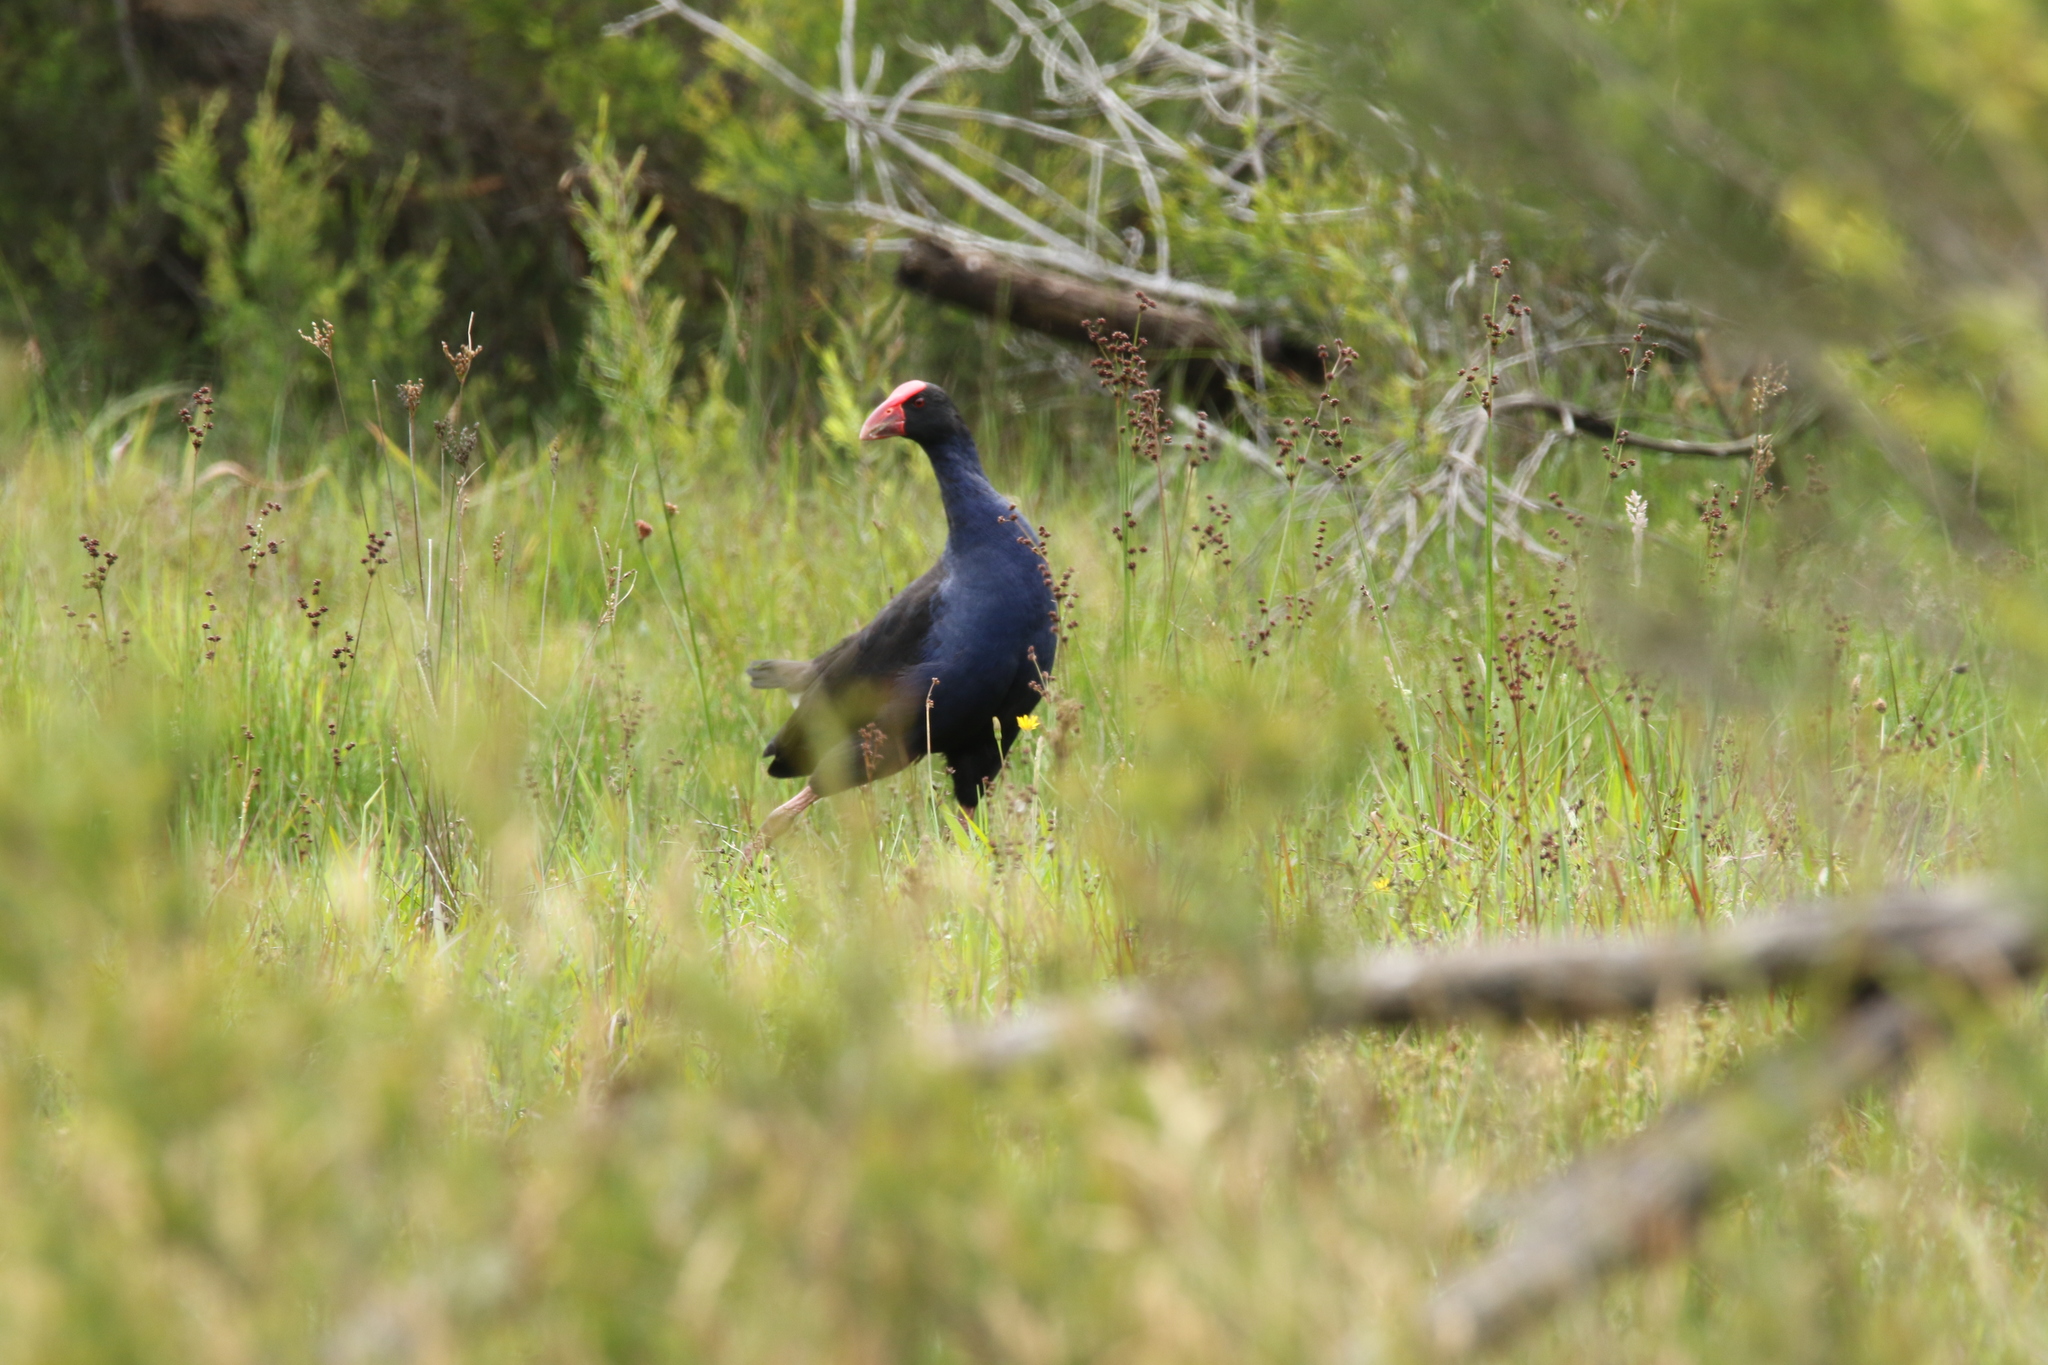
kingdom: Animalia
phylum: Chordata
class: Aves
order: Gruiformes
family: Rallidae
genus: Porphyrio
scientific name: Porphyrio melanotus
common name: Australasian swamphen
